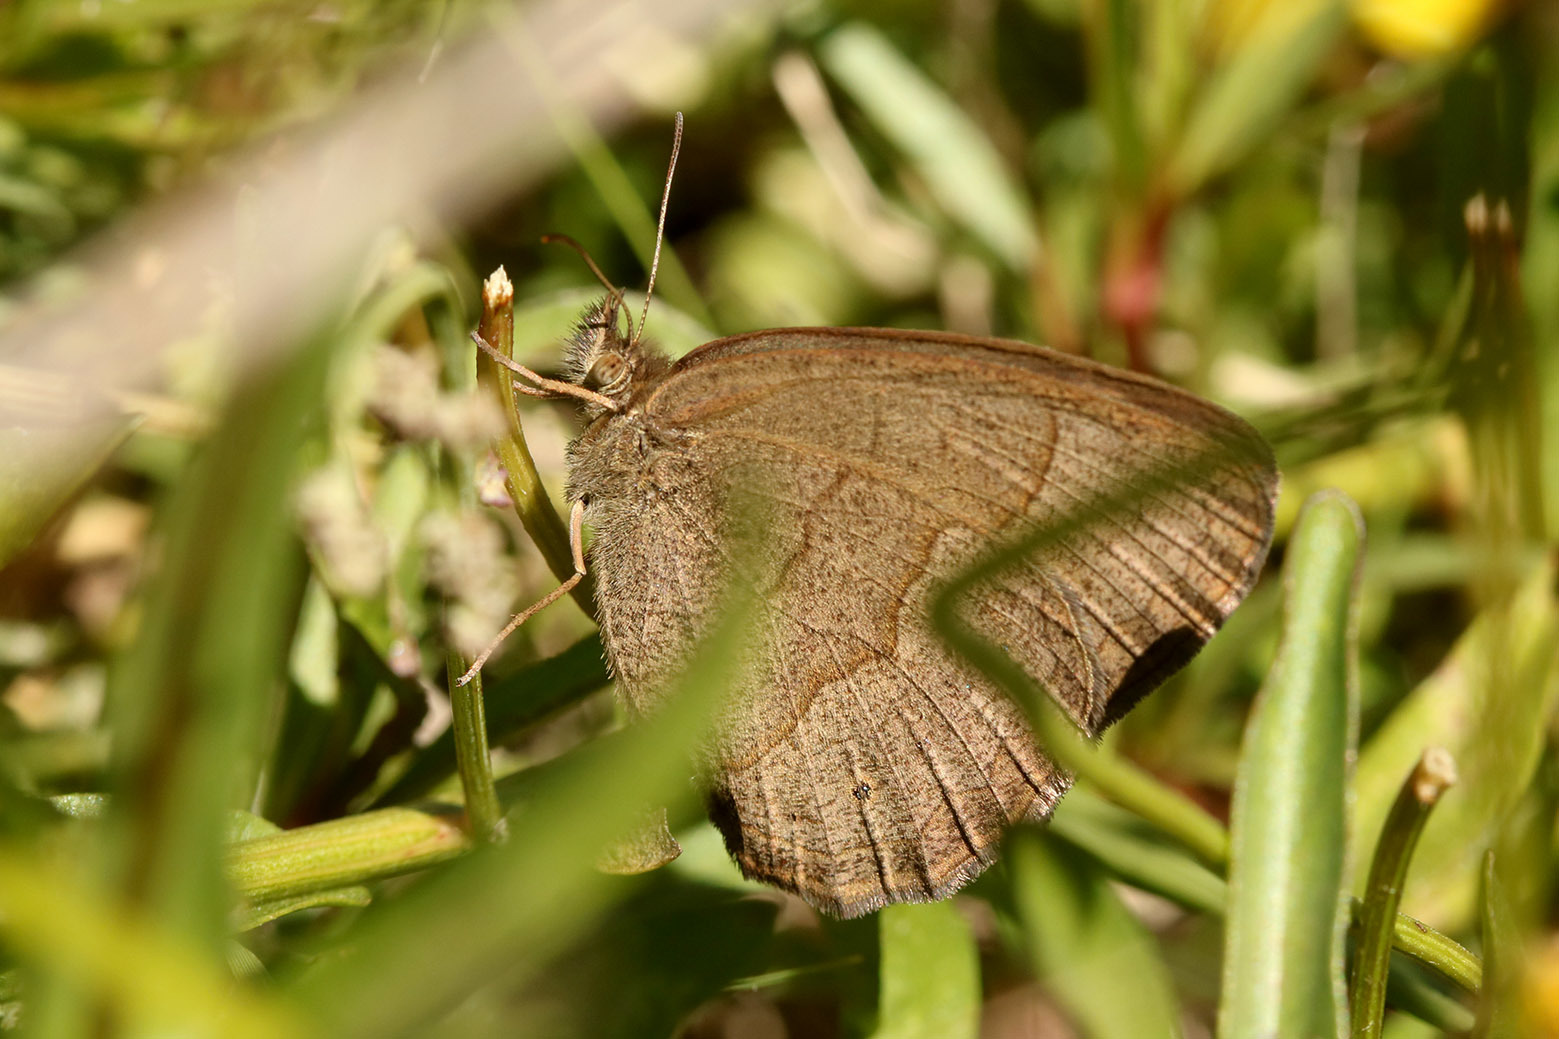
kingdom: Animalia
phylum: Arthropoda
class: Insecta
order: Lepidoptera
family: Nymphalidae
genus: Yphthimoides
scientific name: Yphthimoides celmis
